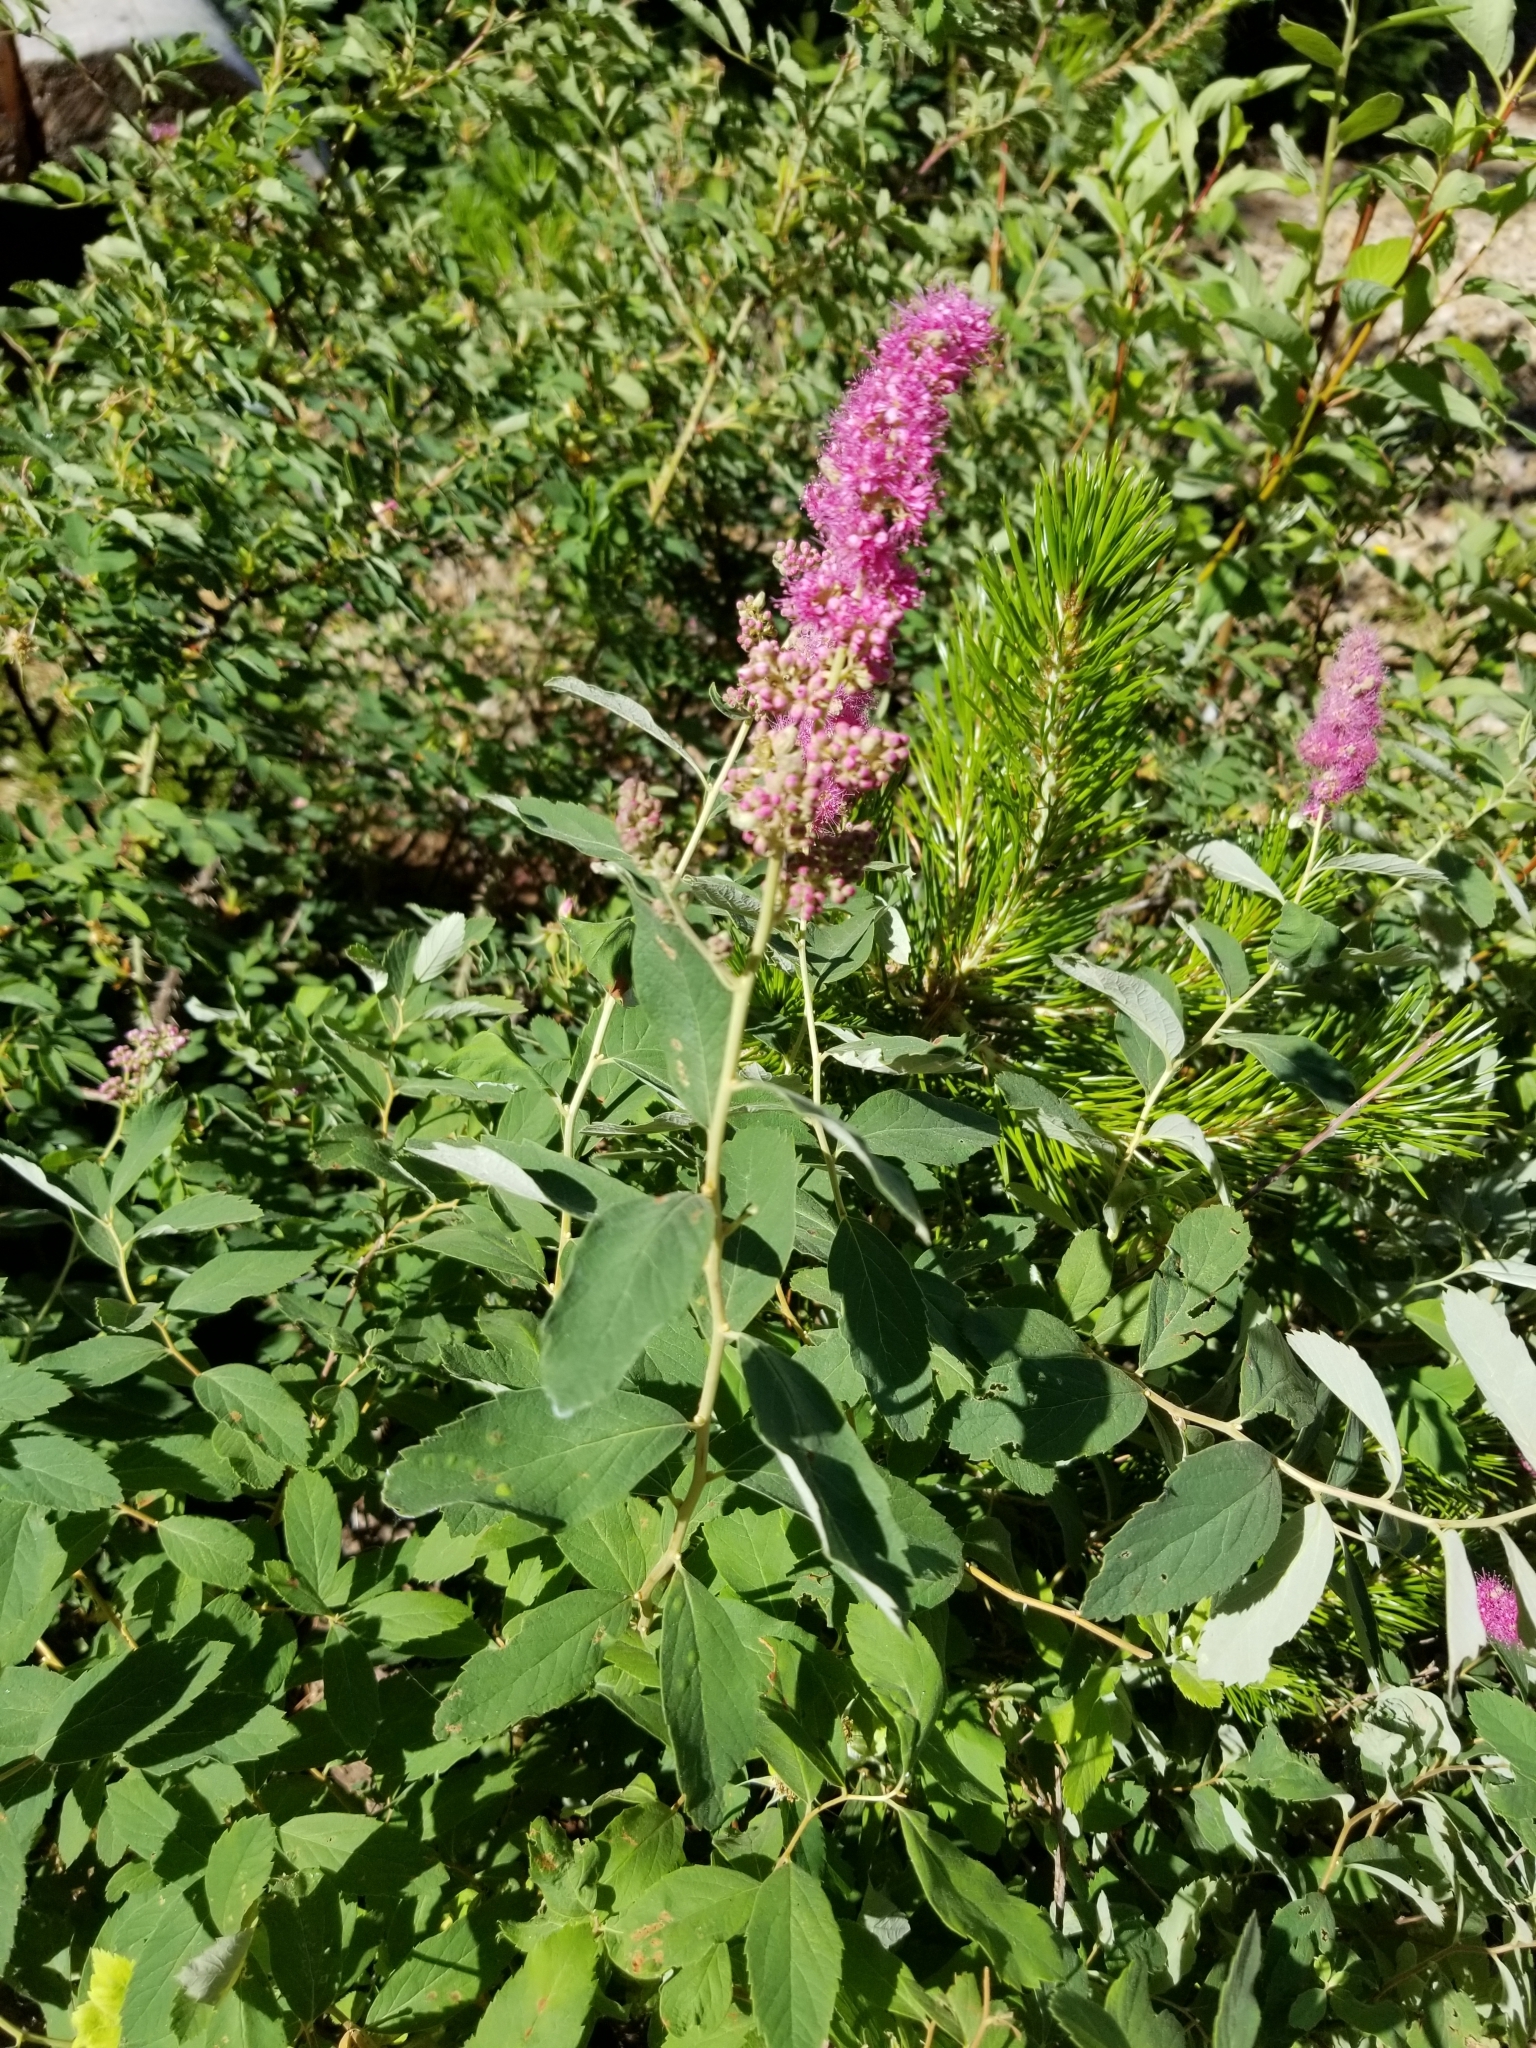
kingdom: Plantae
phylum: Tracheophyta
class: Magnoliopsida
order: Rosales
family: Rosaceae
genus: Spiraea
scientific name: Spiraea douglasii
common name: Steeplebush
